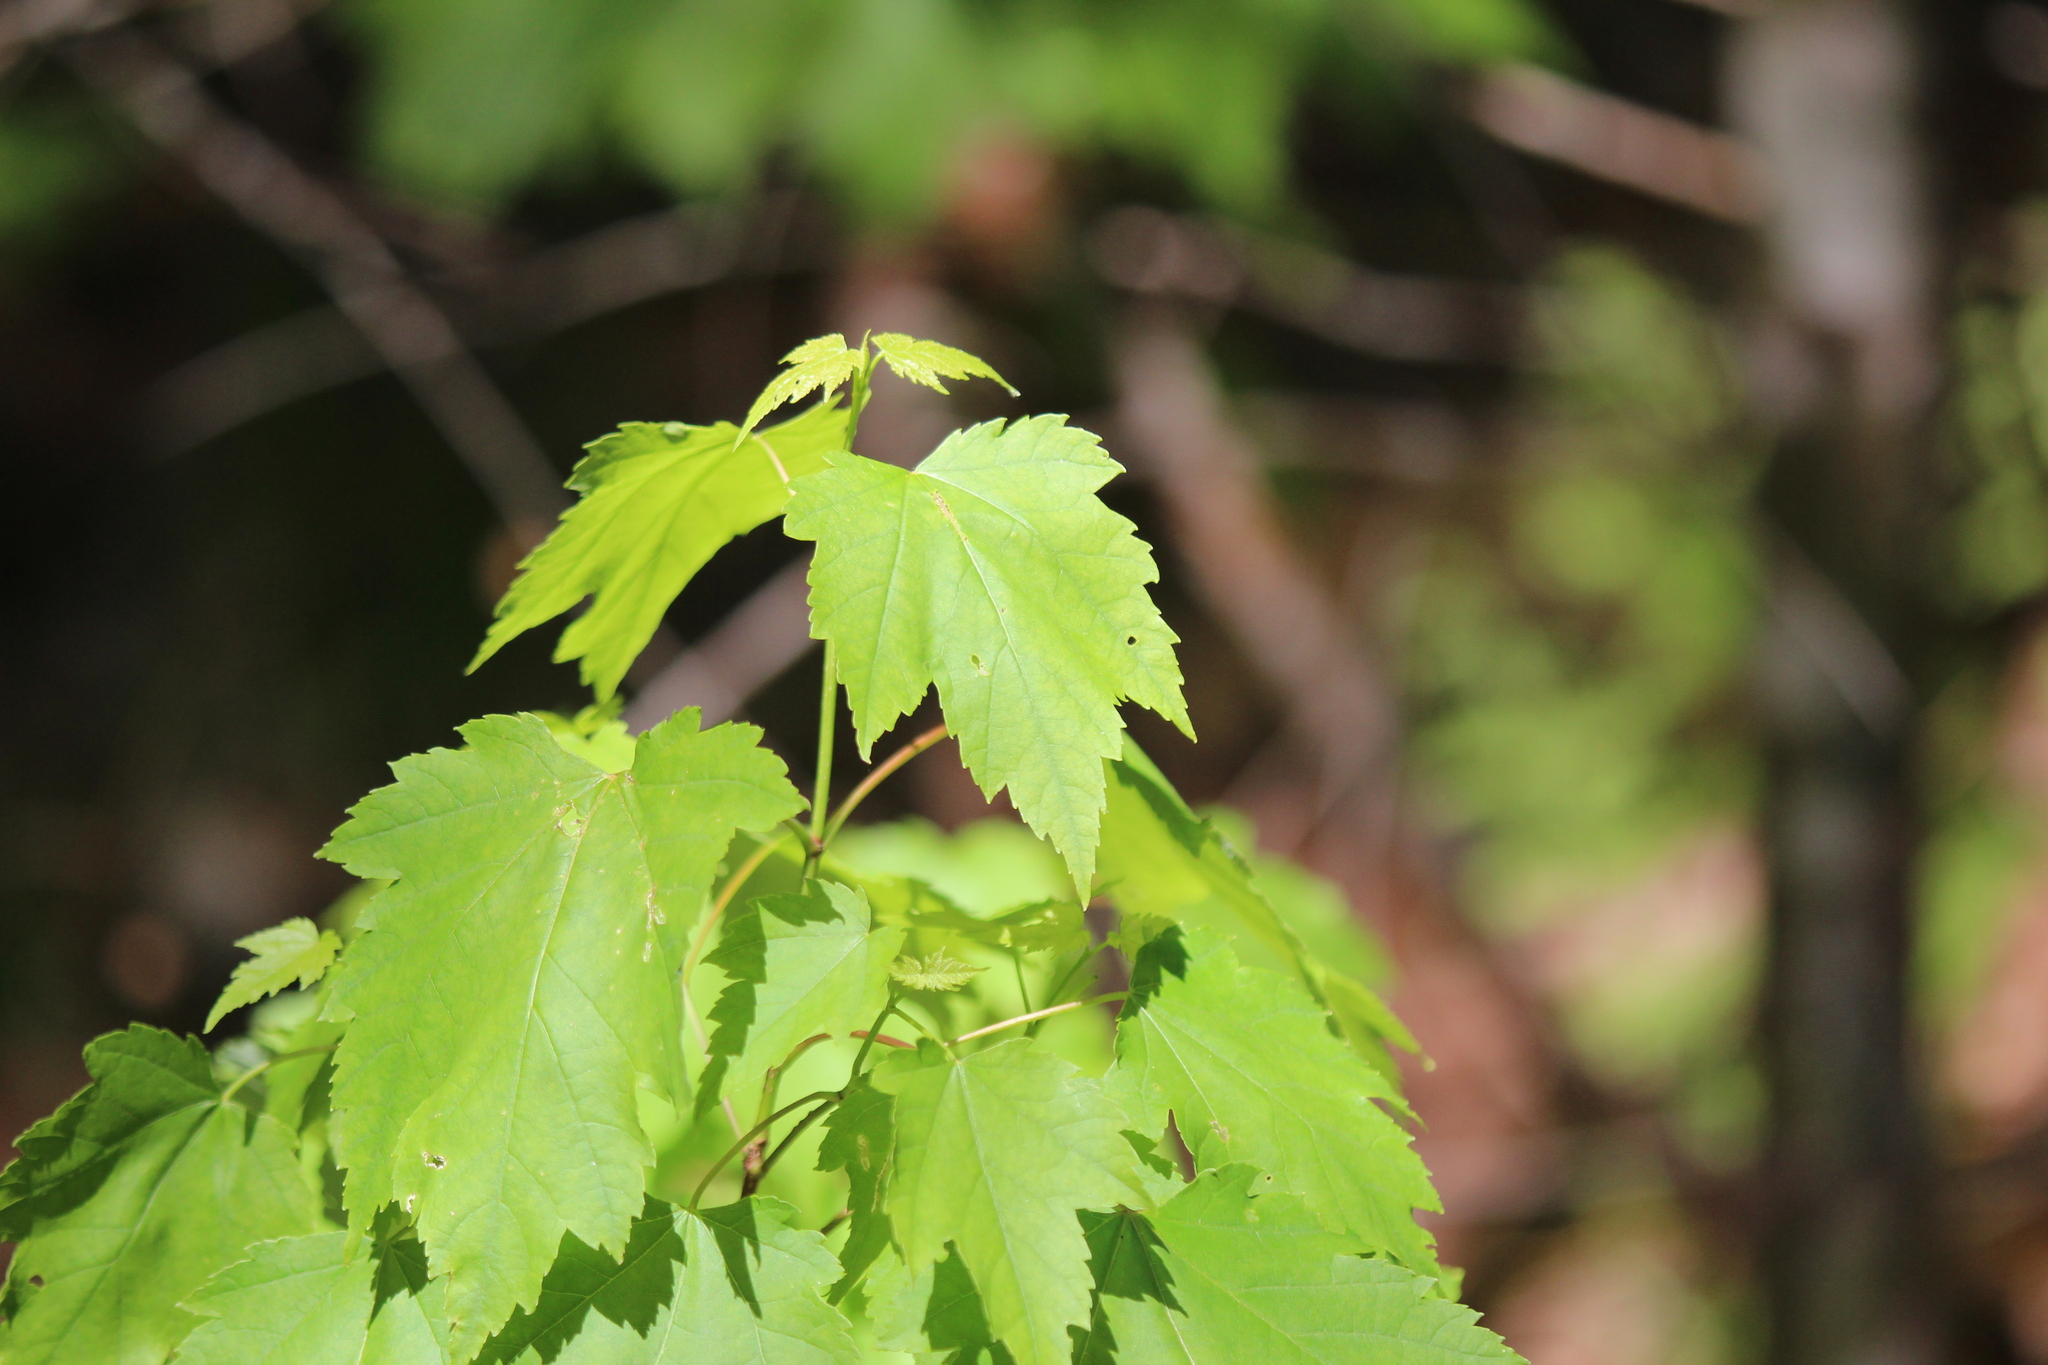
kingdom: Plantae
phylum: Tracheophyta
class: Magnoliopsida
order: Sapindales
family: Sapindaceae
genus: Acer
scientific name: Acer rubrum
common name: Red maple
